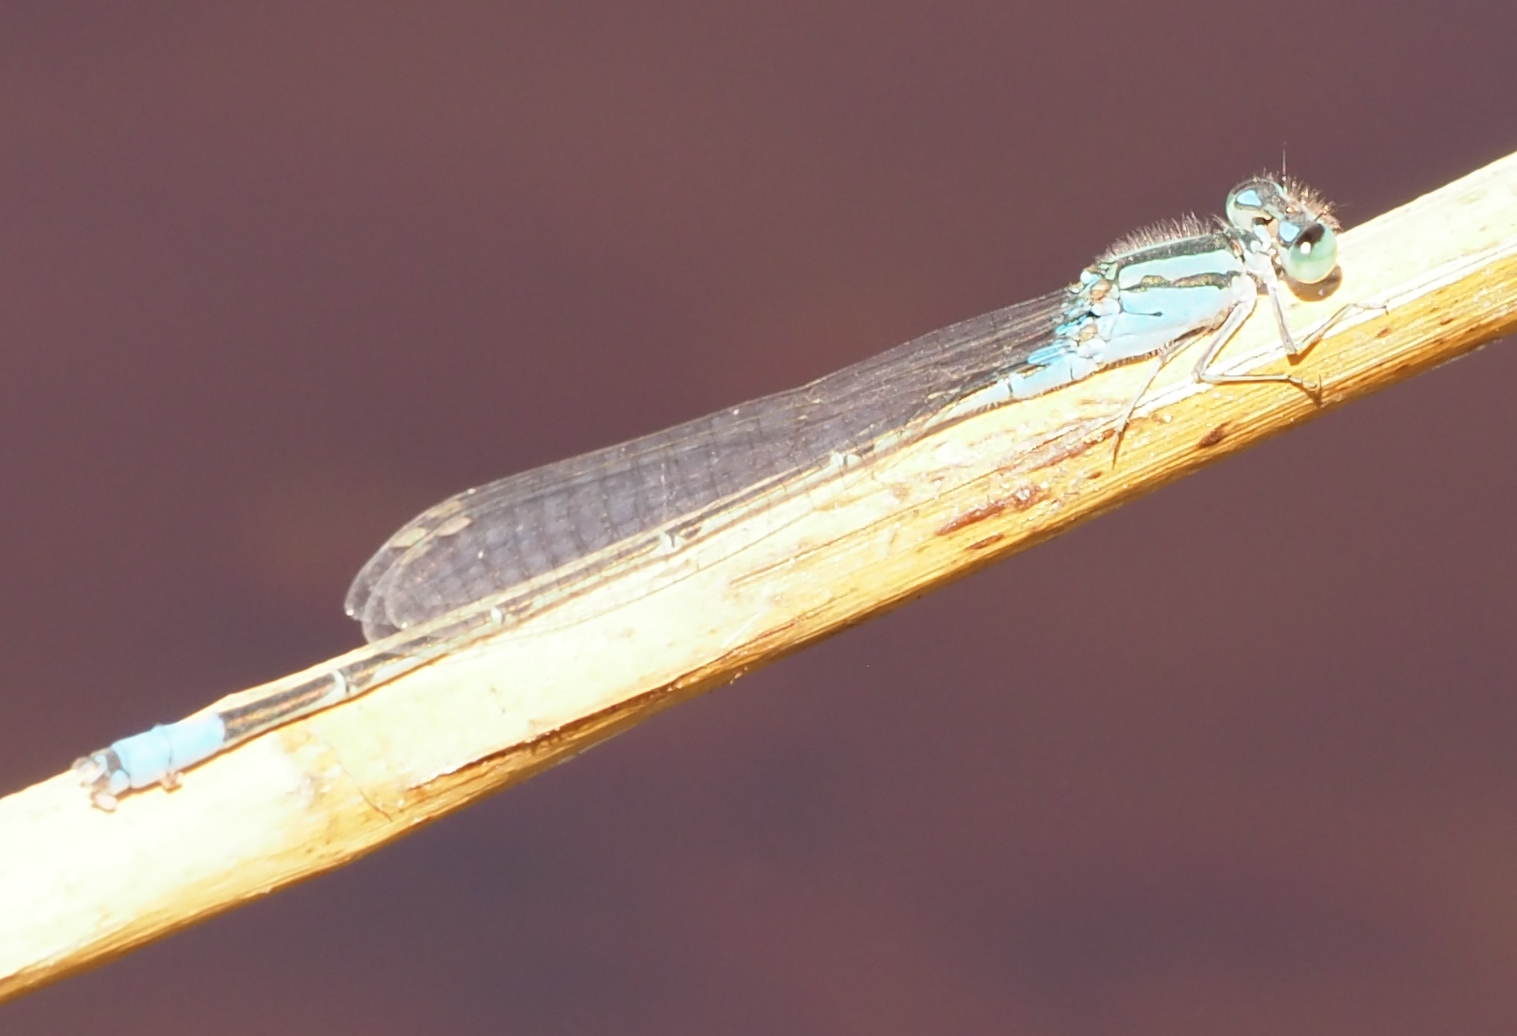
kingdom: Animalia
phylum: Arthropoda
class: Insecta
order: Odonata
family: Coenagrionidae
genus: Pseudagrion
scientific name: Pseudagrion coeleste
